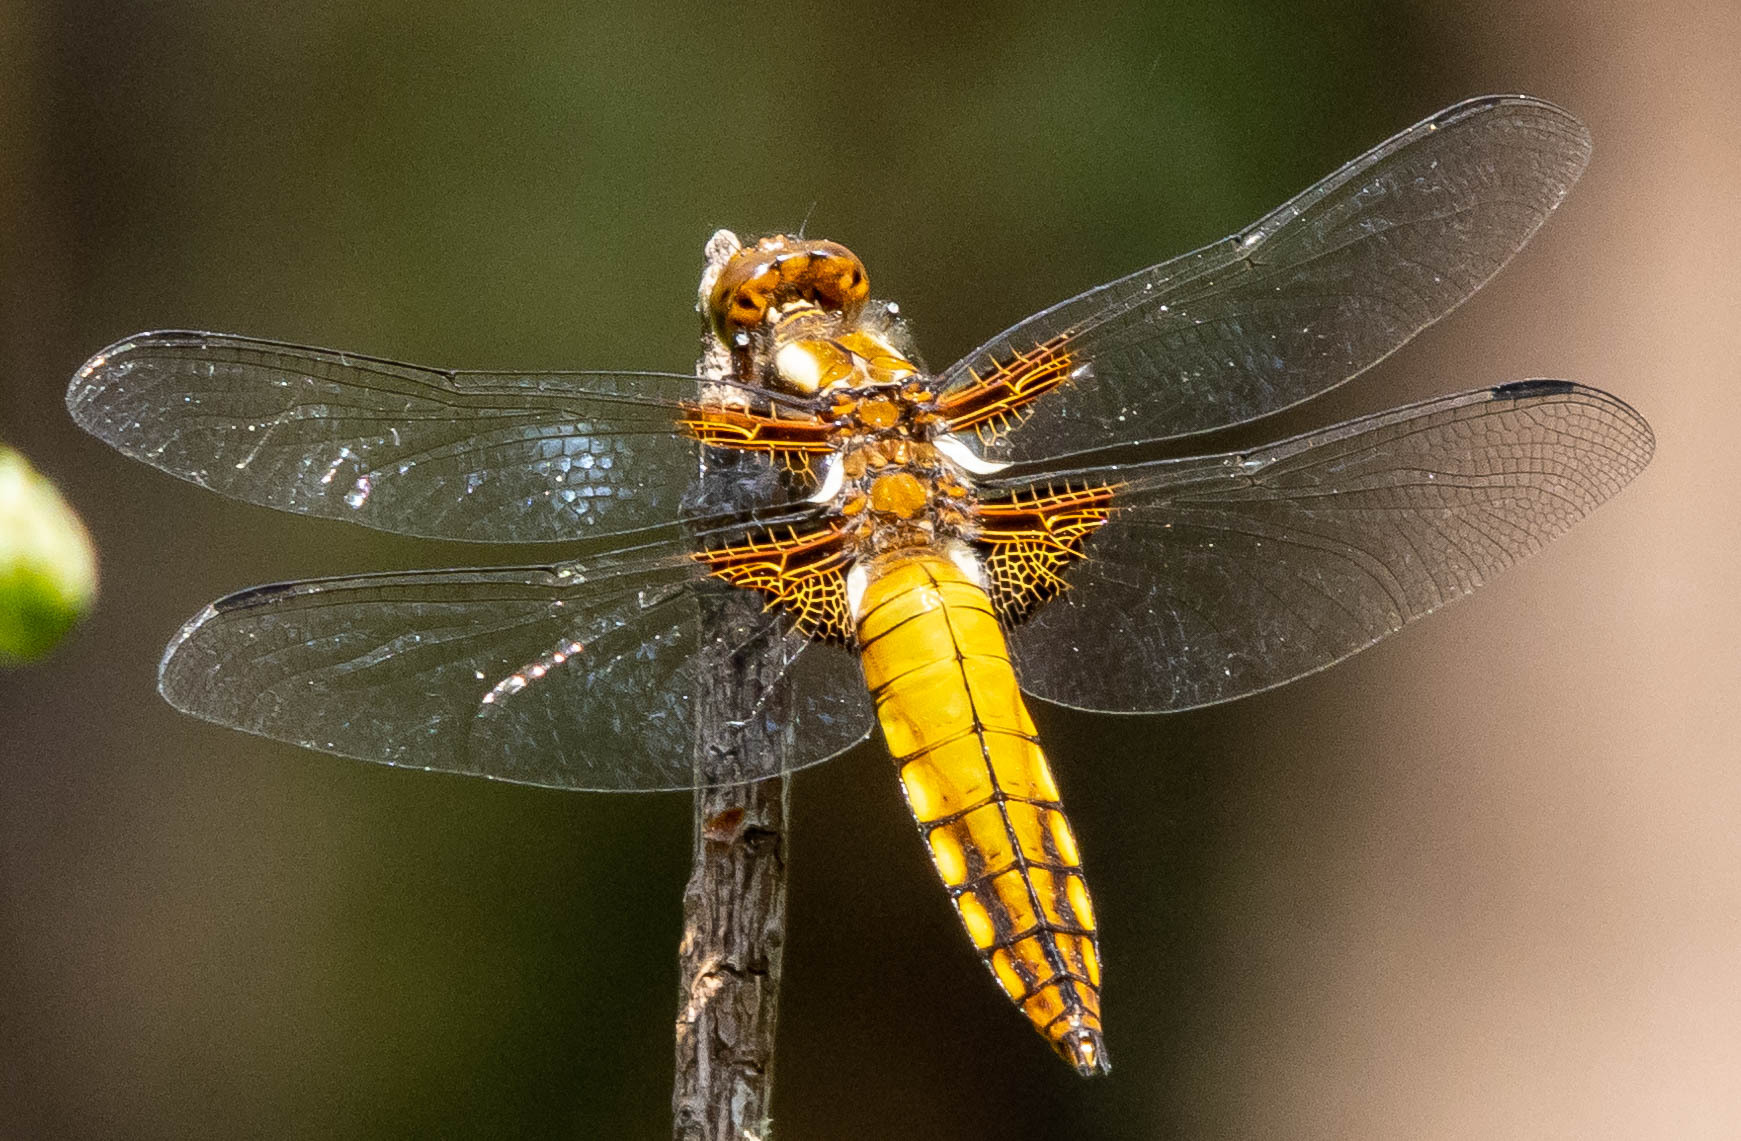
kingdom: Animalia
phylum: Arthropoda
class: Insecta
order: Odonata
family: Libellulidae
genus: Libellula
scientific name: Libellula depressa
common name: Broad-bodied chaser
